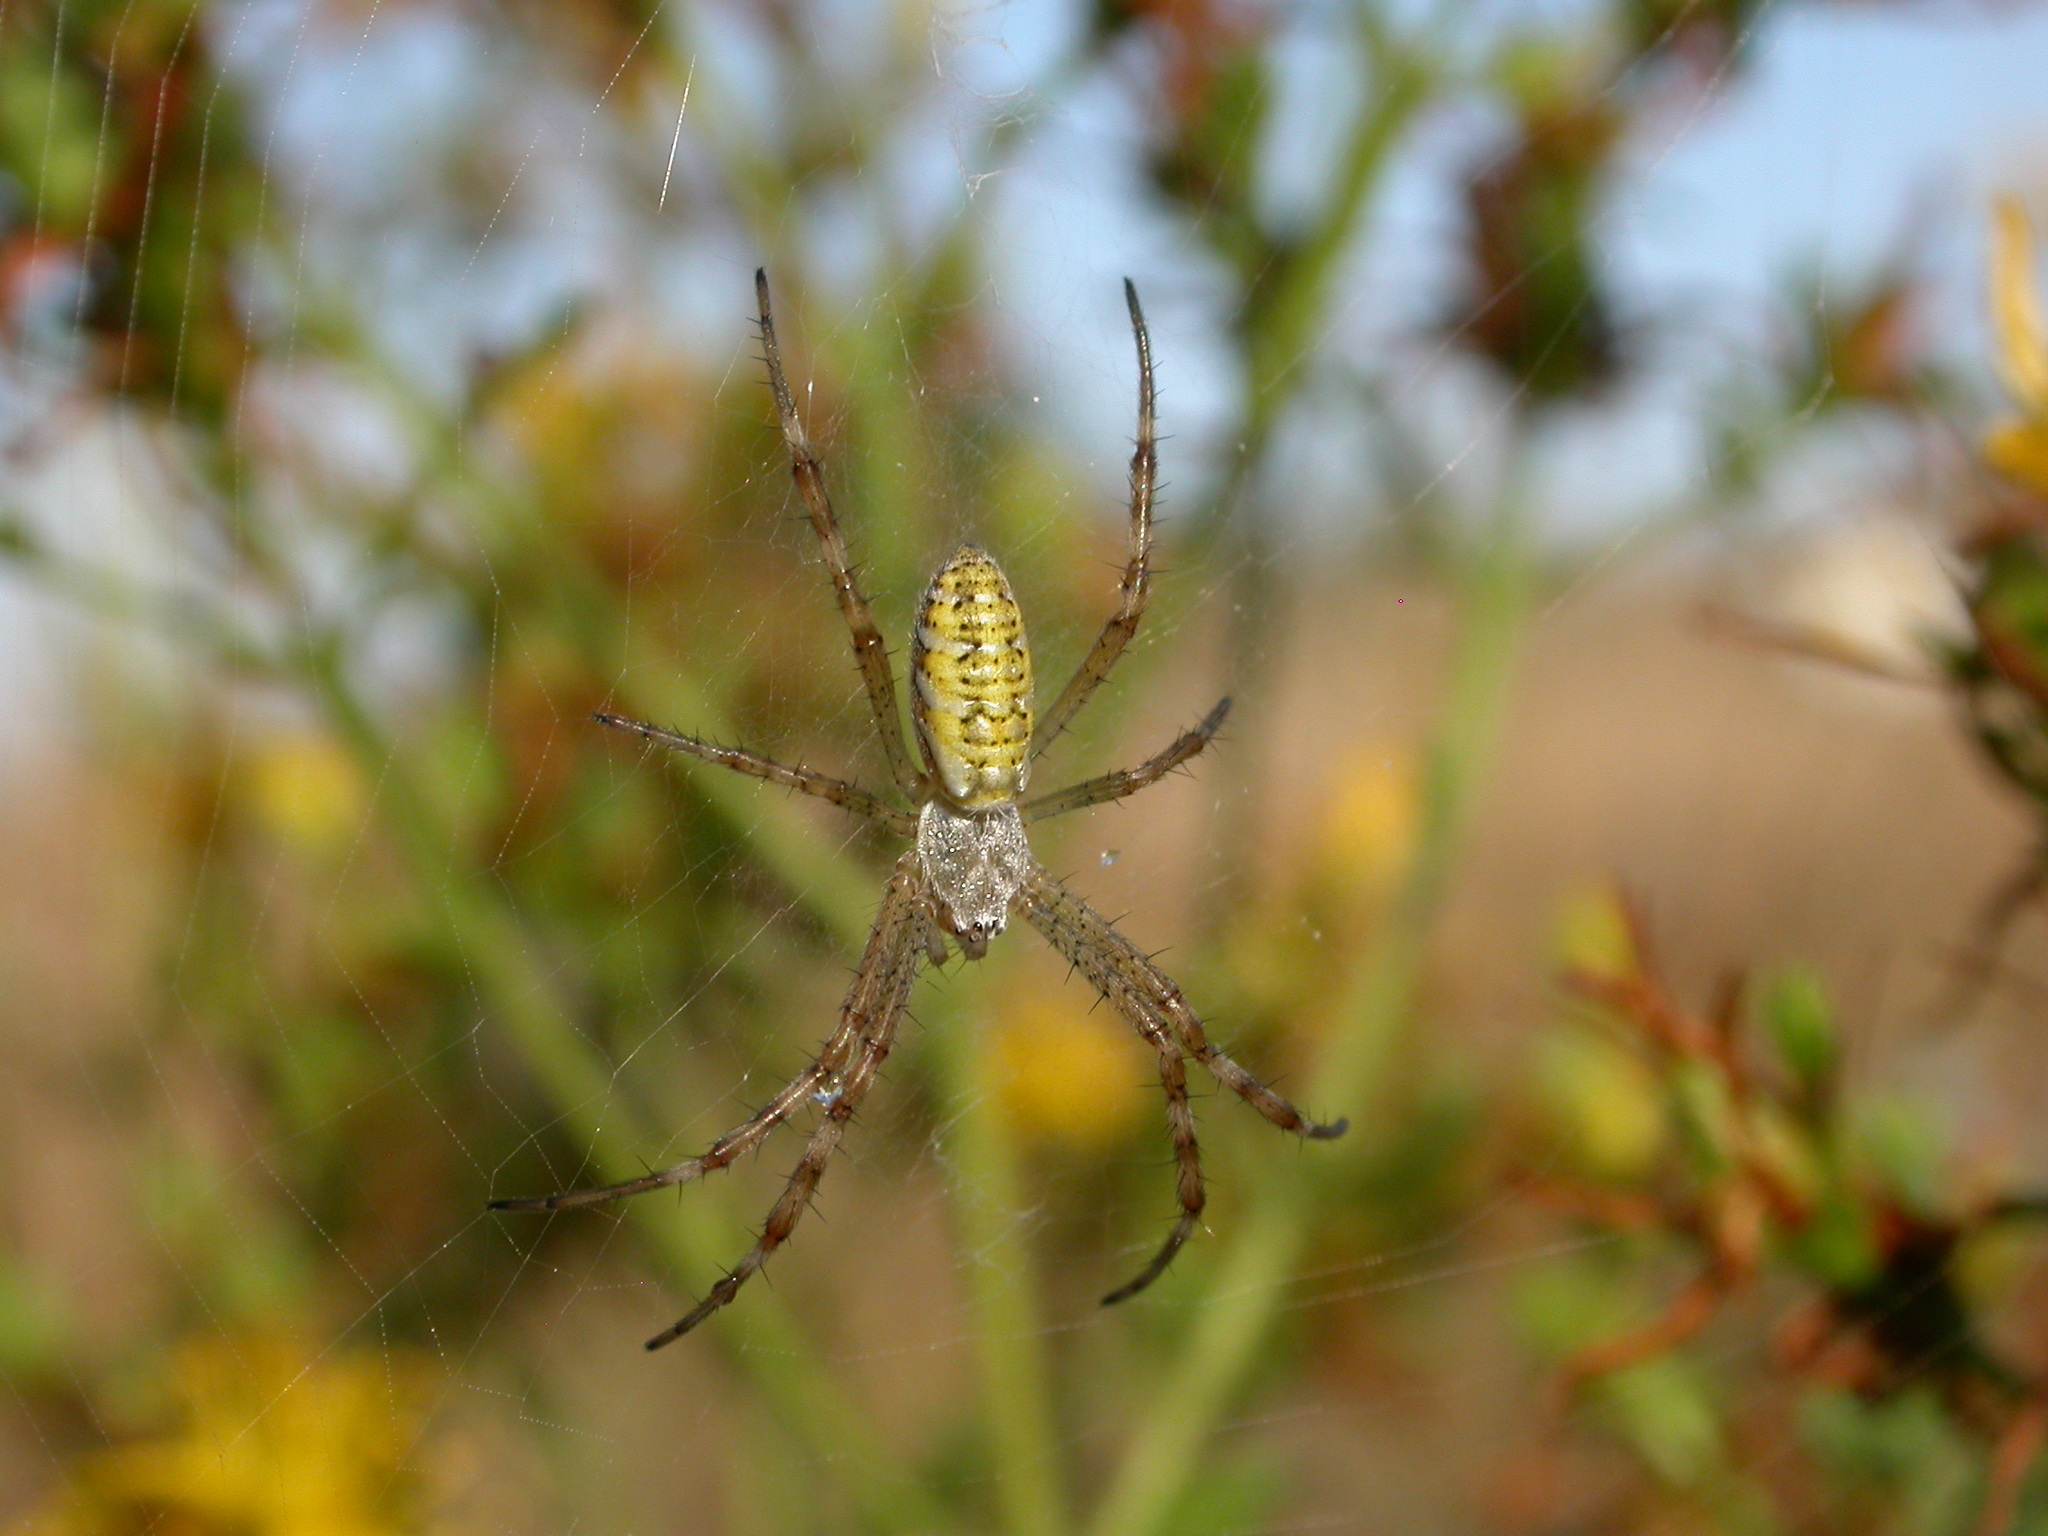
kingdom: Animalia
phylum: Arthropoda
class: Arachnida
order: Araneae
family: Araneidae
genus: Argiope
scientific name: Argiope bruennichi
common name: Wasp spider
